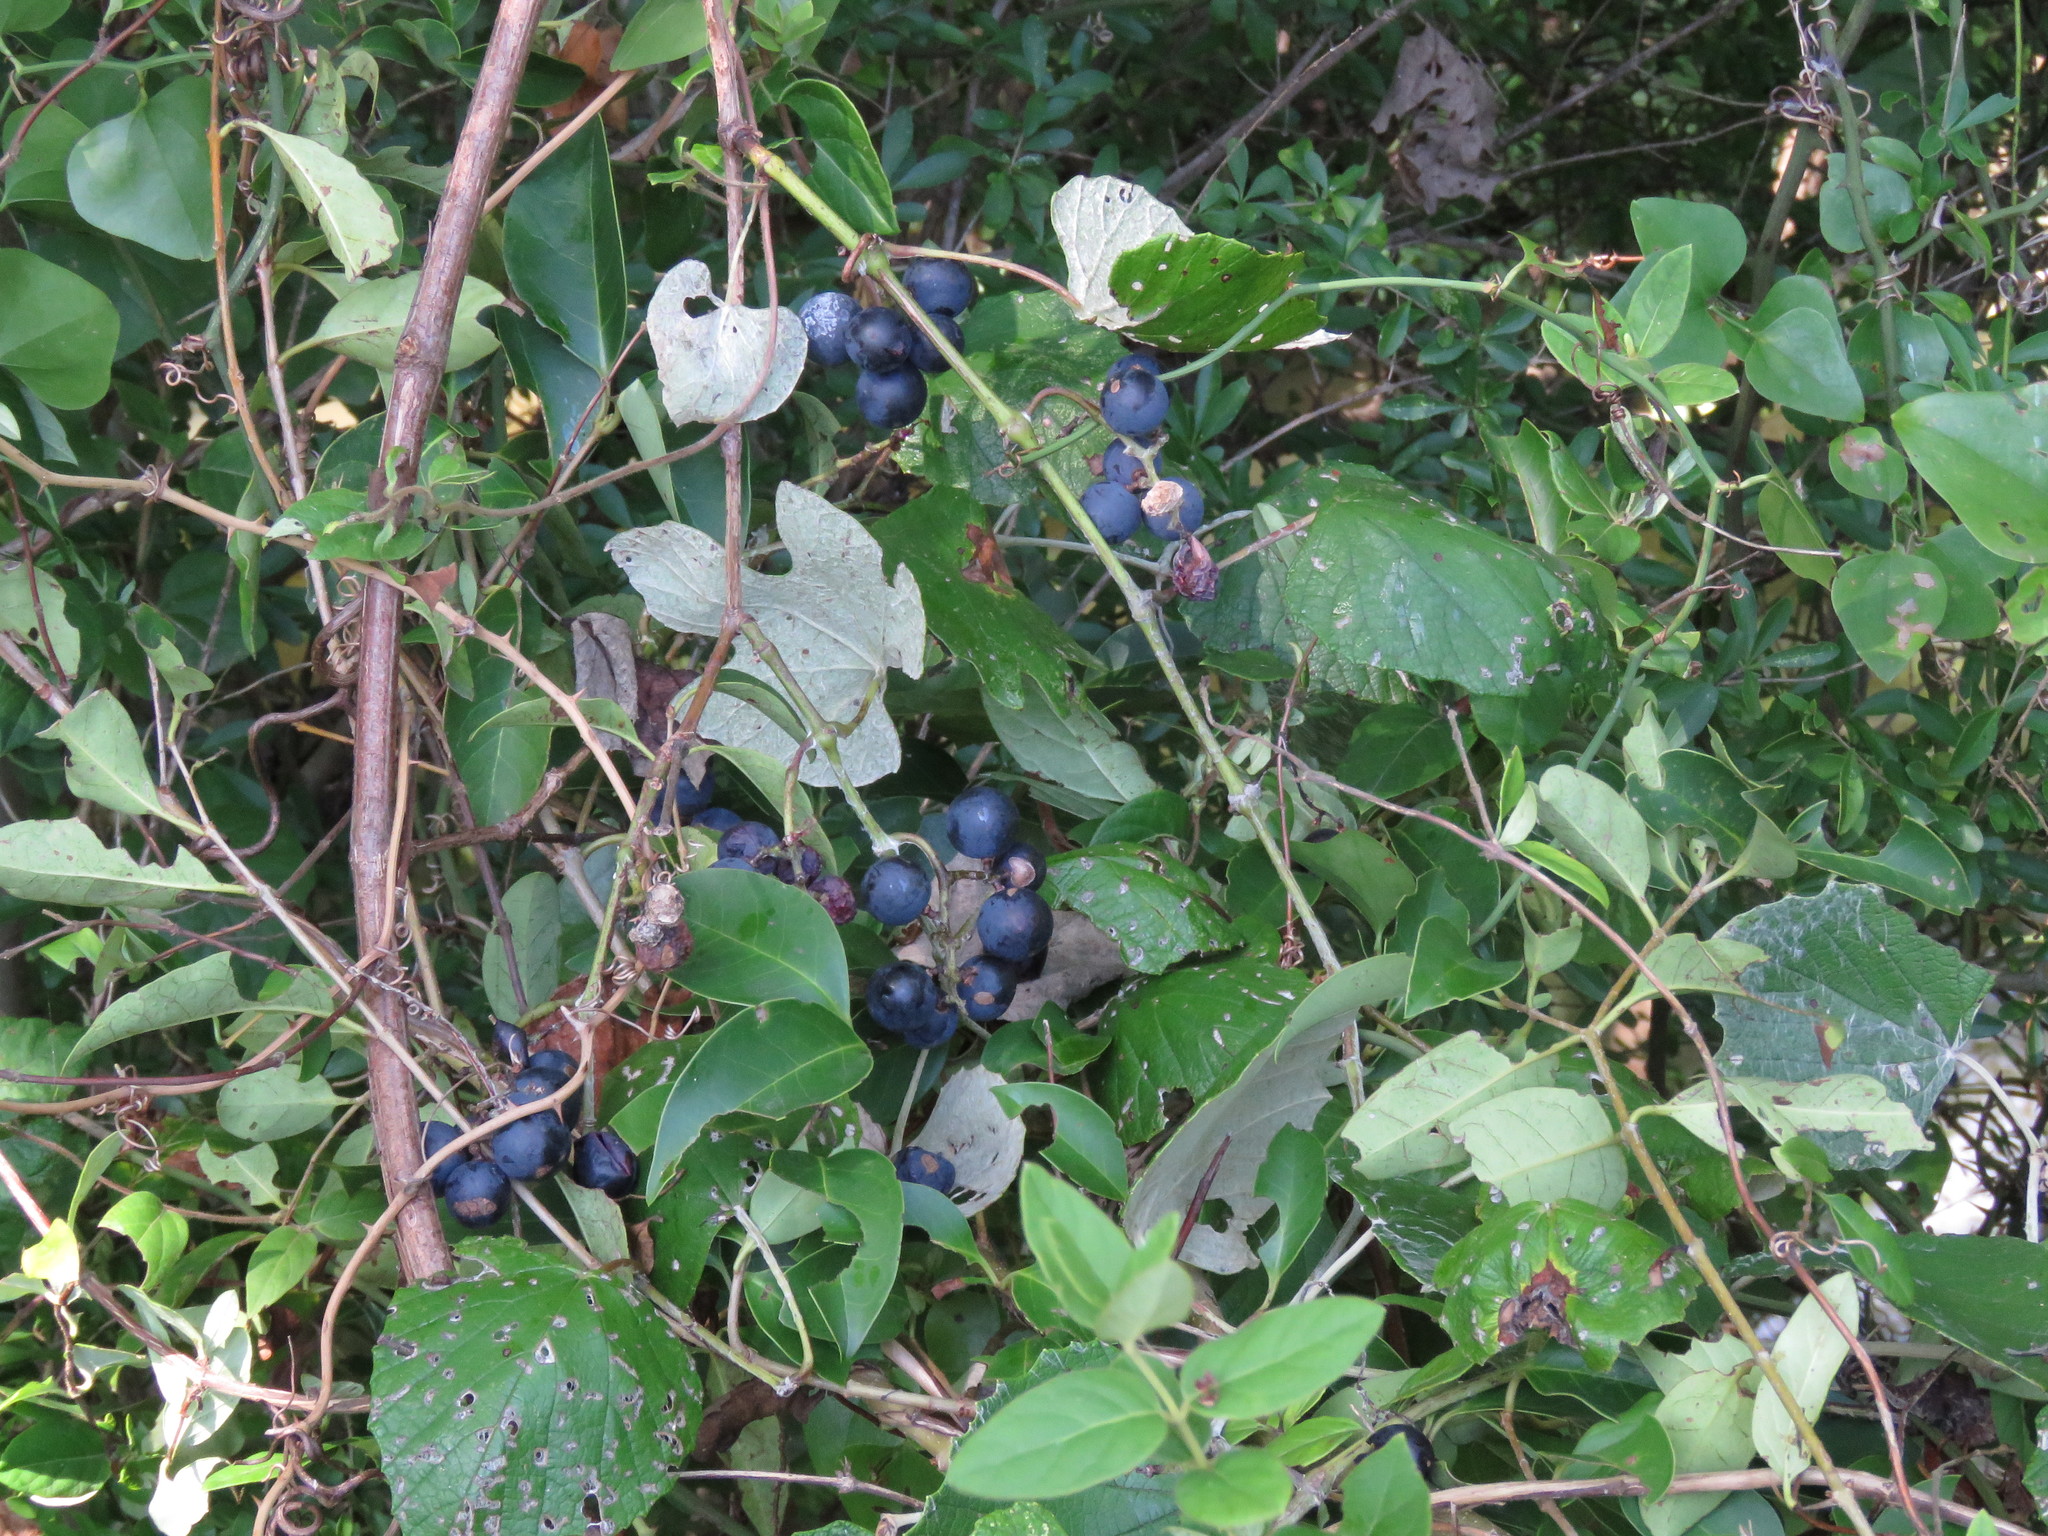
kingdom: Plantae
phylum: Tracheophyta
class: Magnoliopsida
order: Vitales
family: Vitaceae
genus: Vitis
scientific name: Vitis mustangensis
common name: Mustang grape
